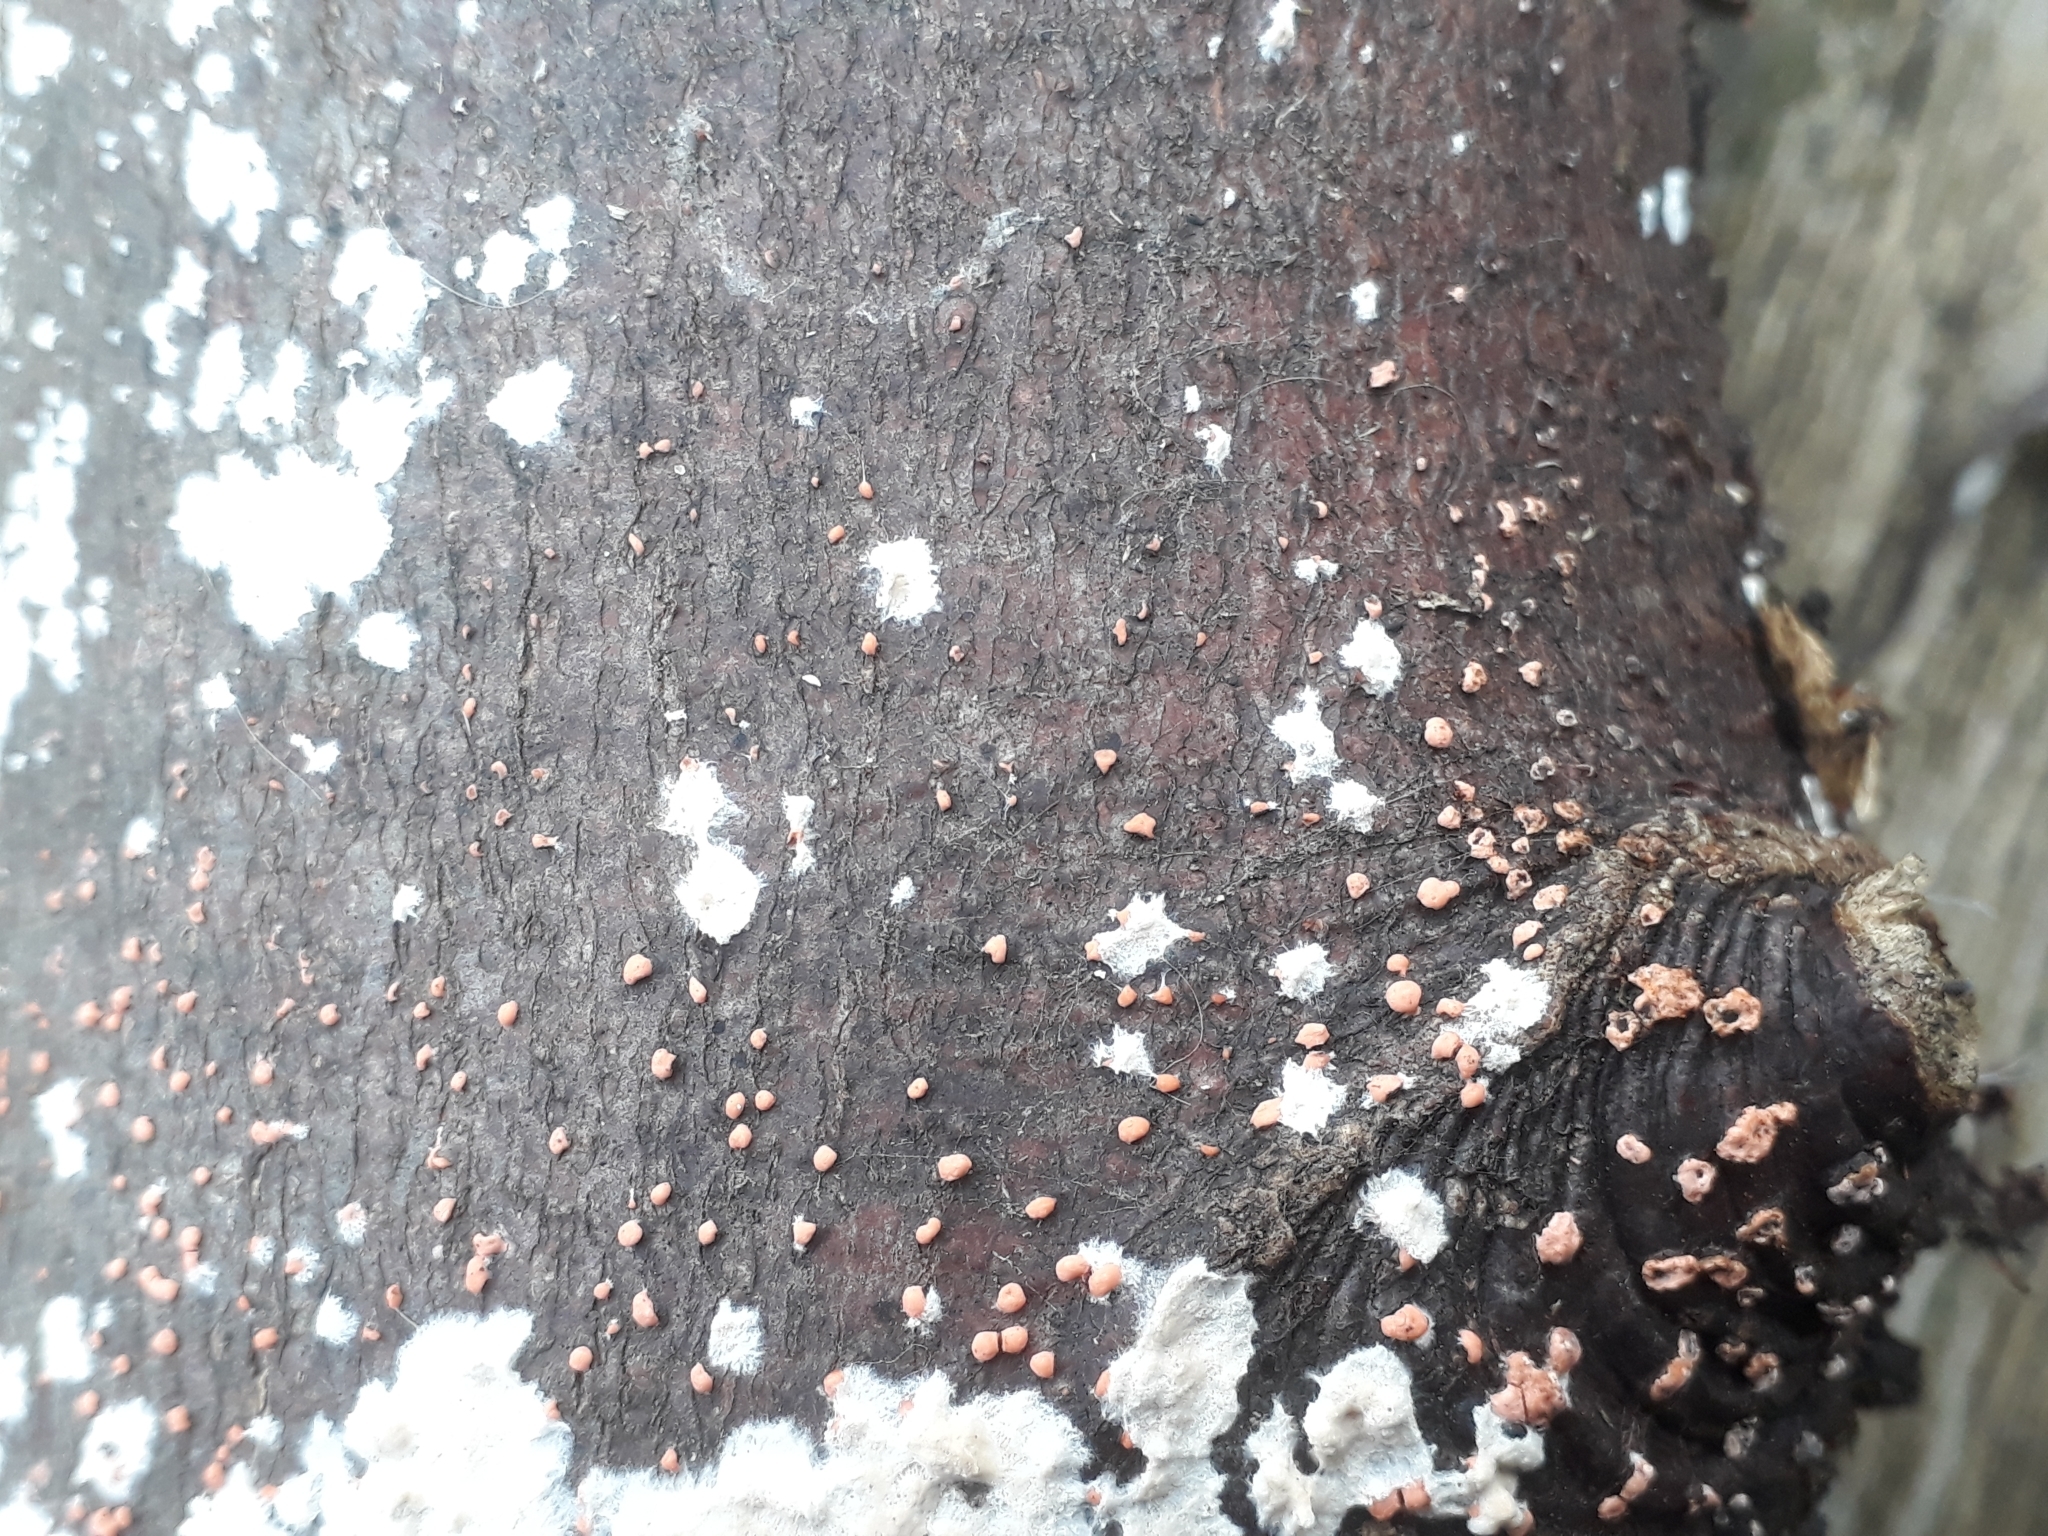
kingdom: Fungi
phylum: Ascomycota
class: Sordariomycetes
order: Hypocreales
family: Nectriaceae
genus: Nectria
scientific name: Nectria cinnabarina
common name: Coral spot
